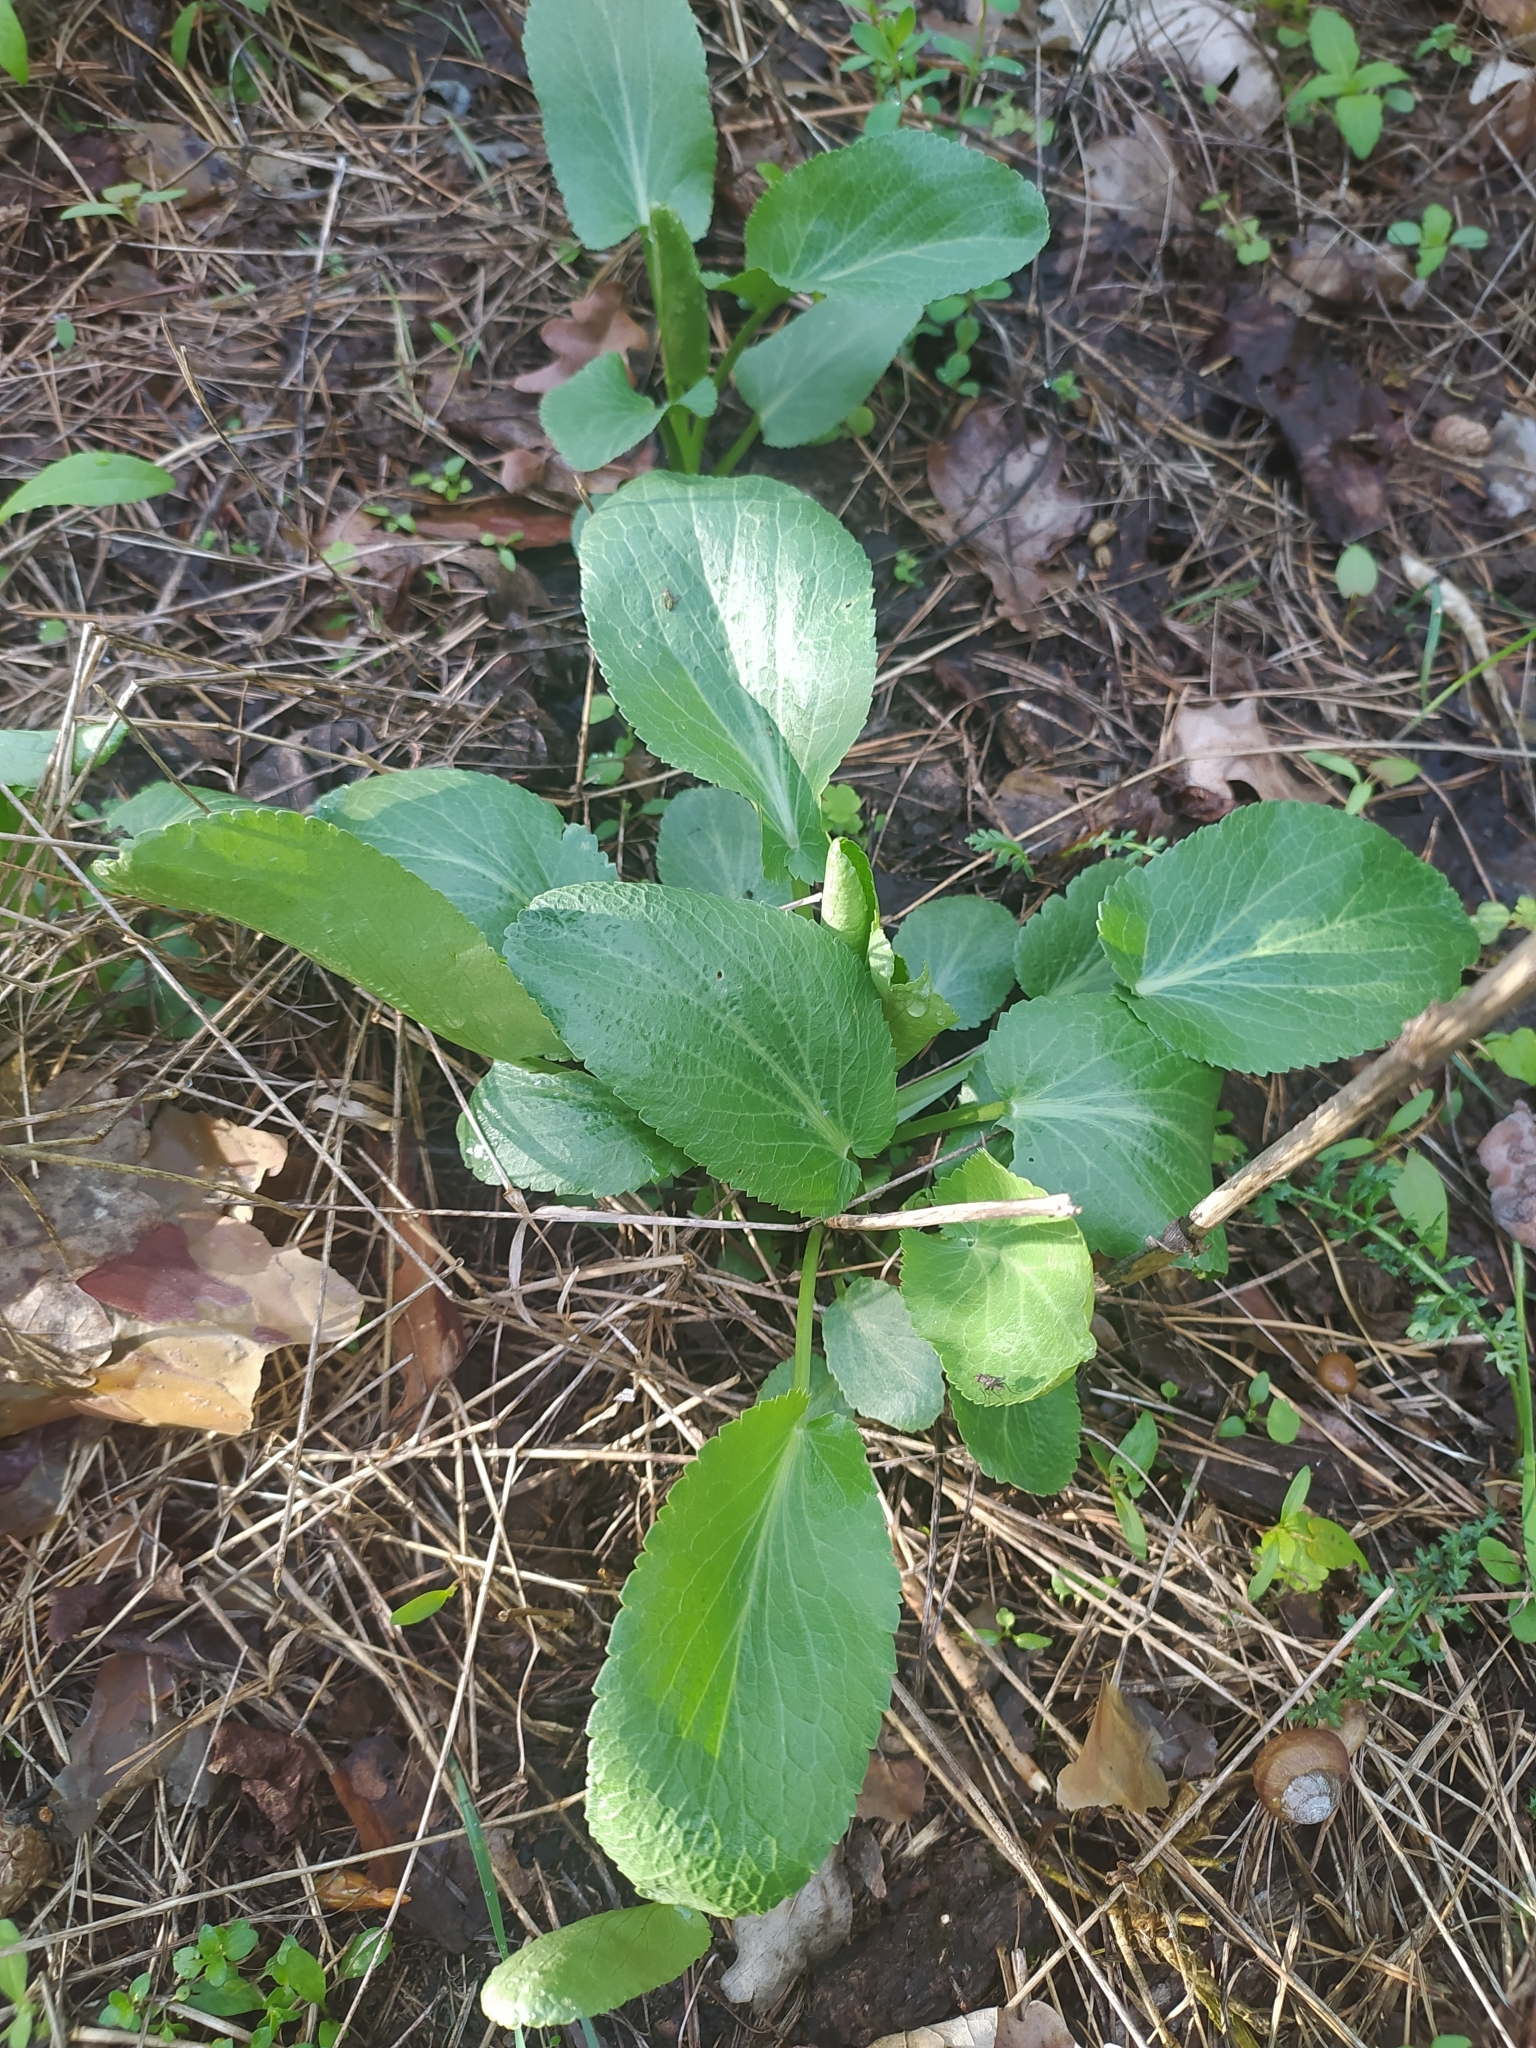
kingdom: Plantae
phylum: Tracheophyta
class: Magnoliopsida
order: Apiales
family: Apiaceae
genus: Eryngium
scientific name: Eryngium planum
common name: Blue eryngo
